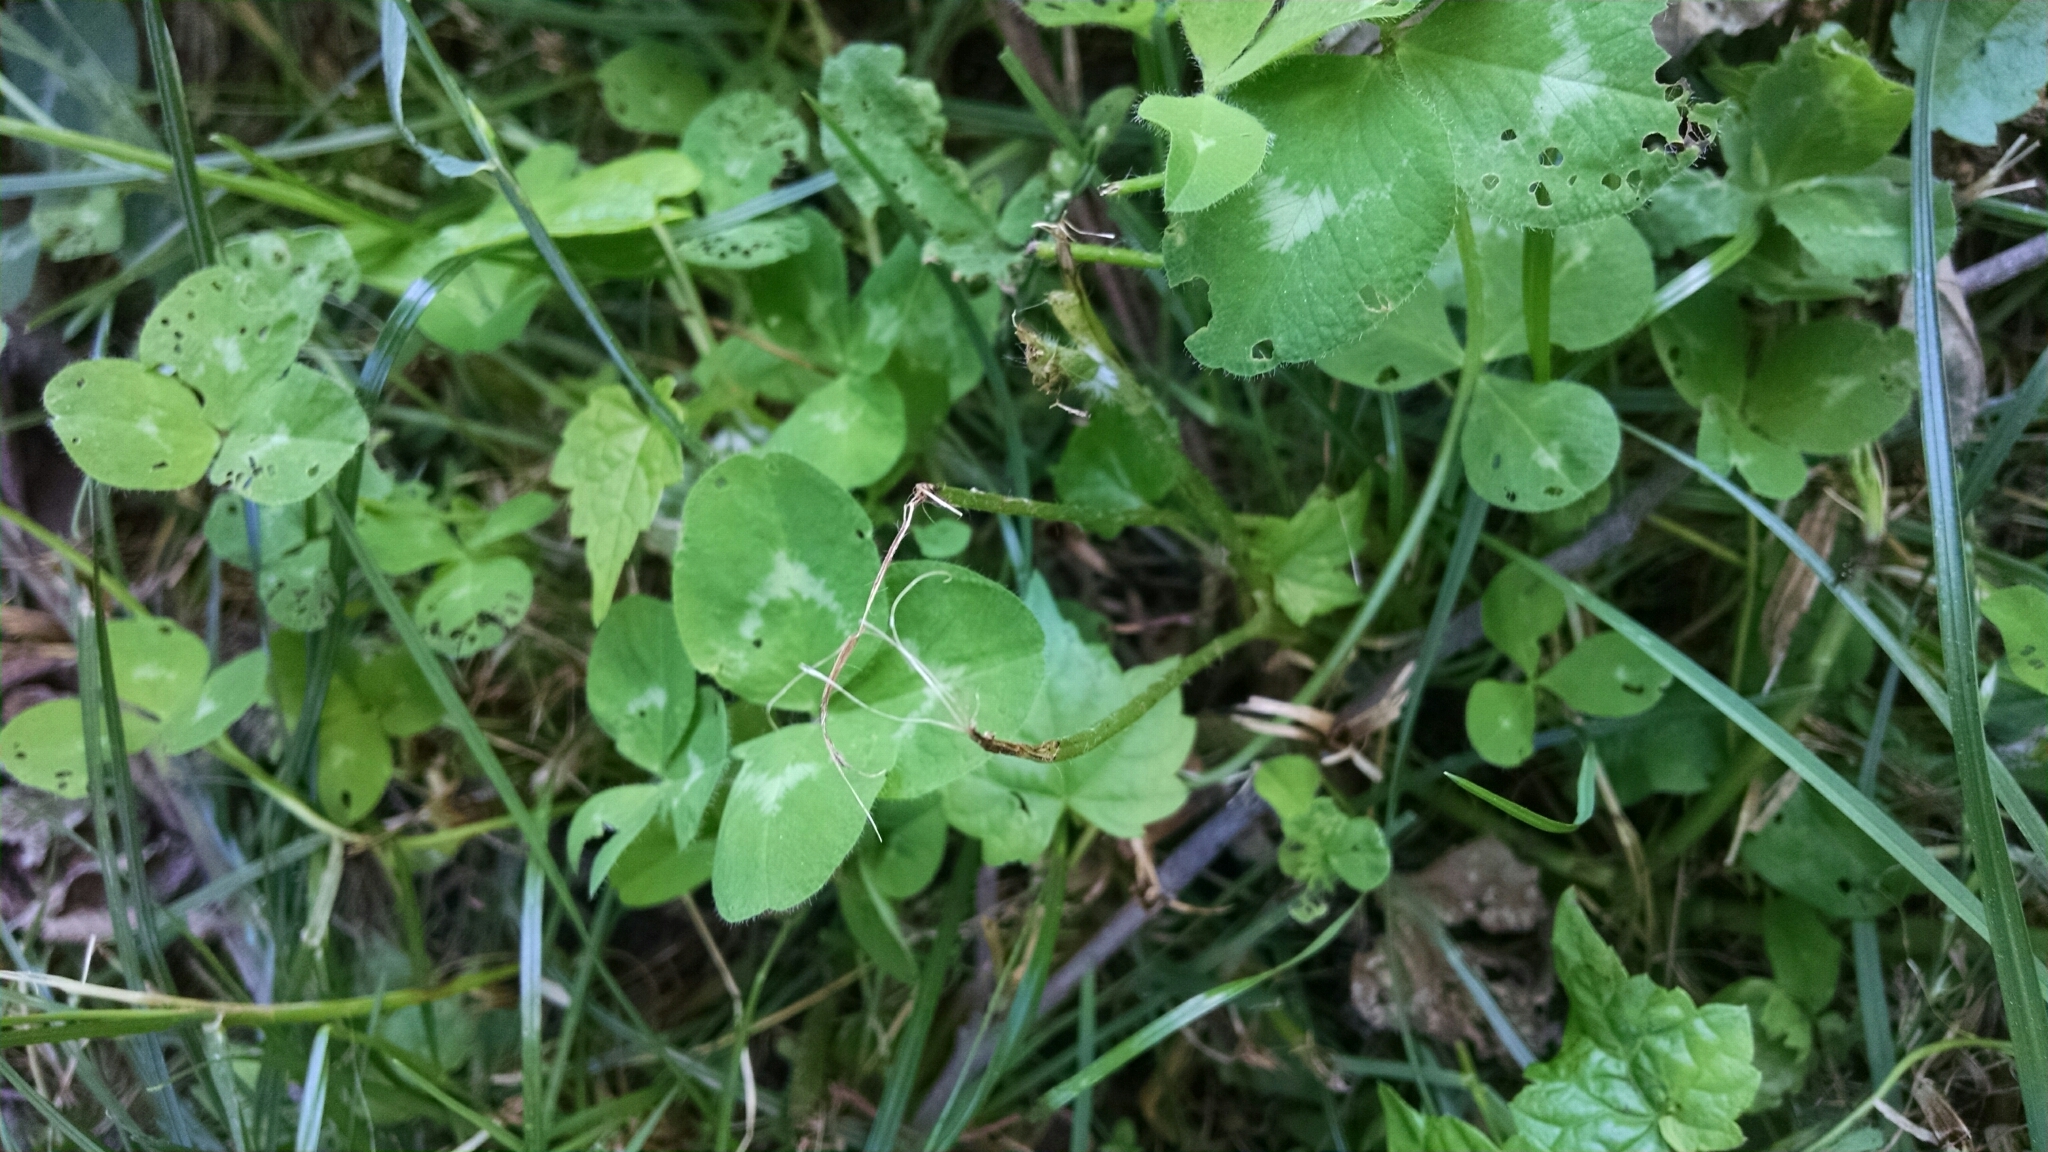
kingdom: Plantae
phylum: Tracheophyta
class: Magnoliopsida
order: Fabales
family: Fabaceae
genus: Trifolium
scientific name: Trifolium pratense
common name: Red clover
